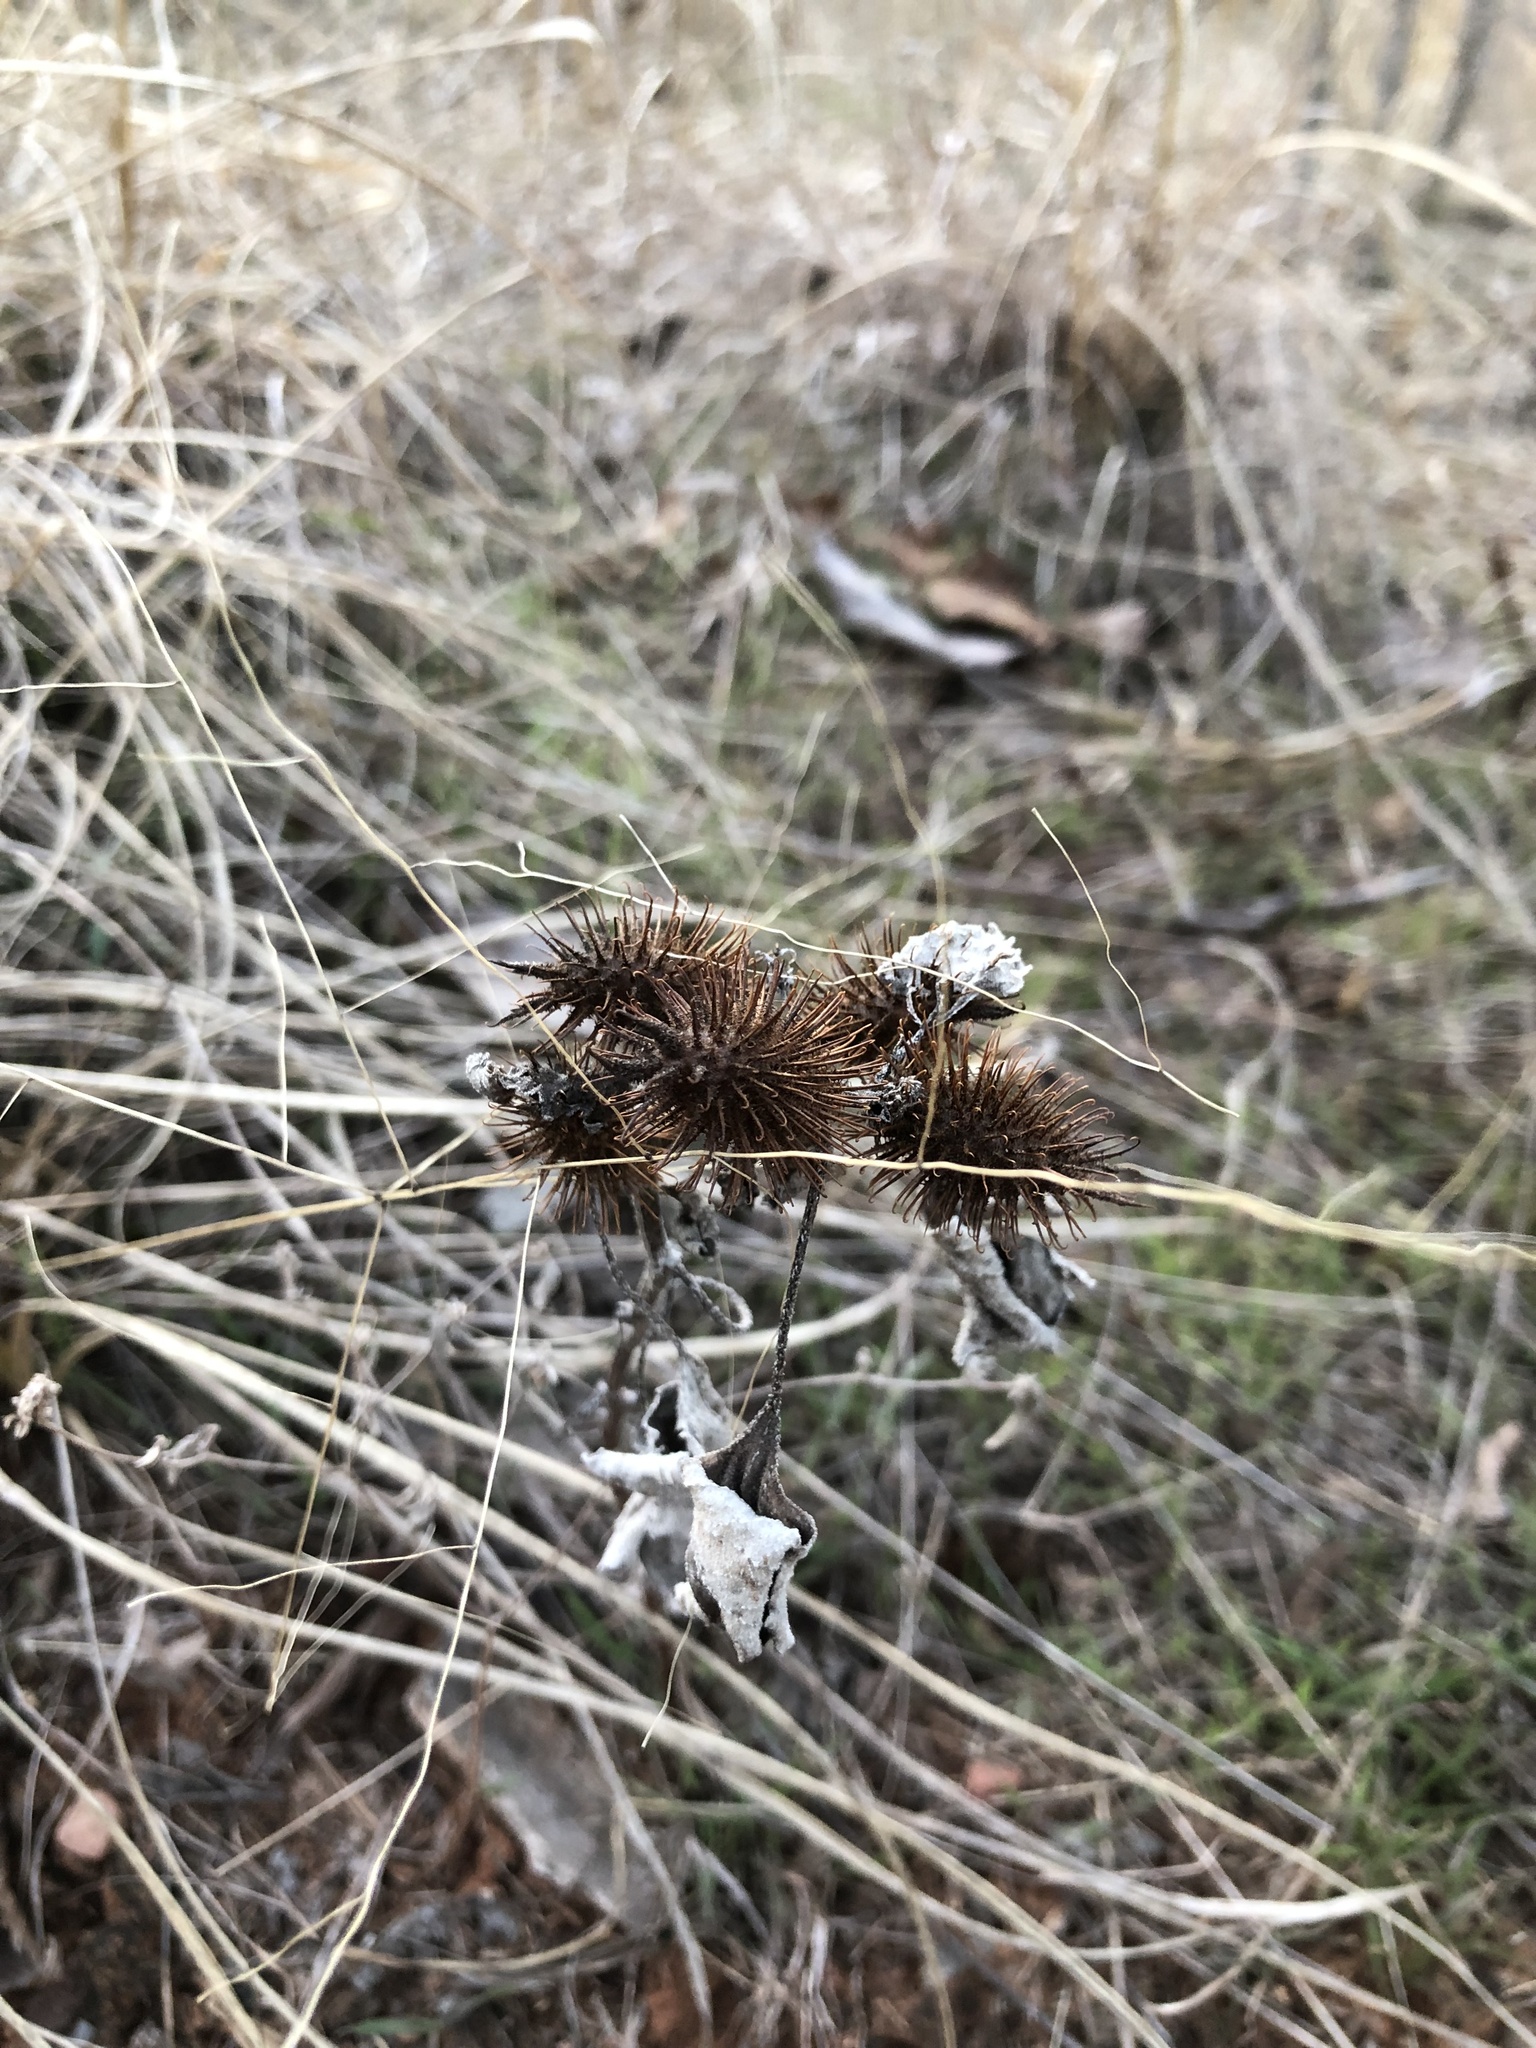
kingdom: Plantae
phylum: Tracheophyta
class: Magnoliopsida
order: Asterales
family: Asteraceae
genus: Xanthium
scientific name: Xanthium strumarium
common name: Rough cocklebur
